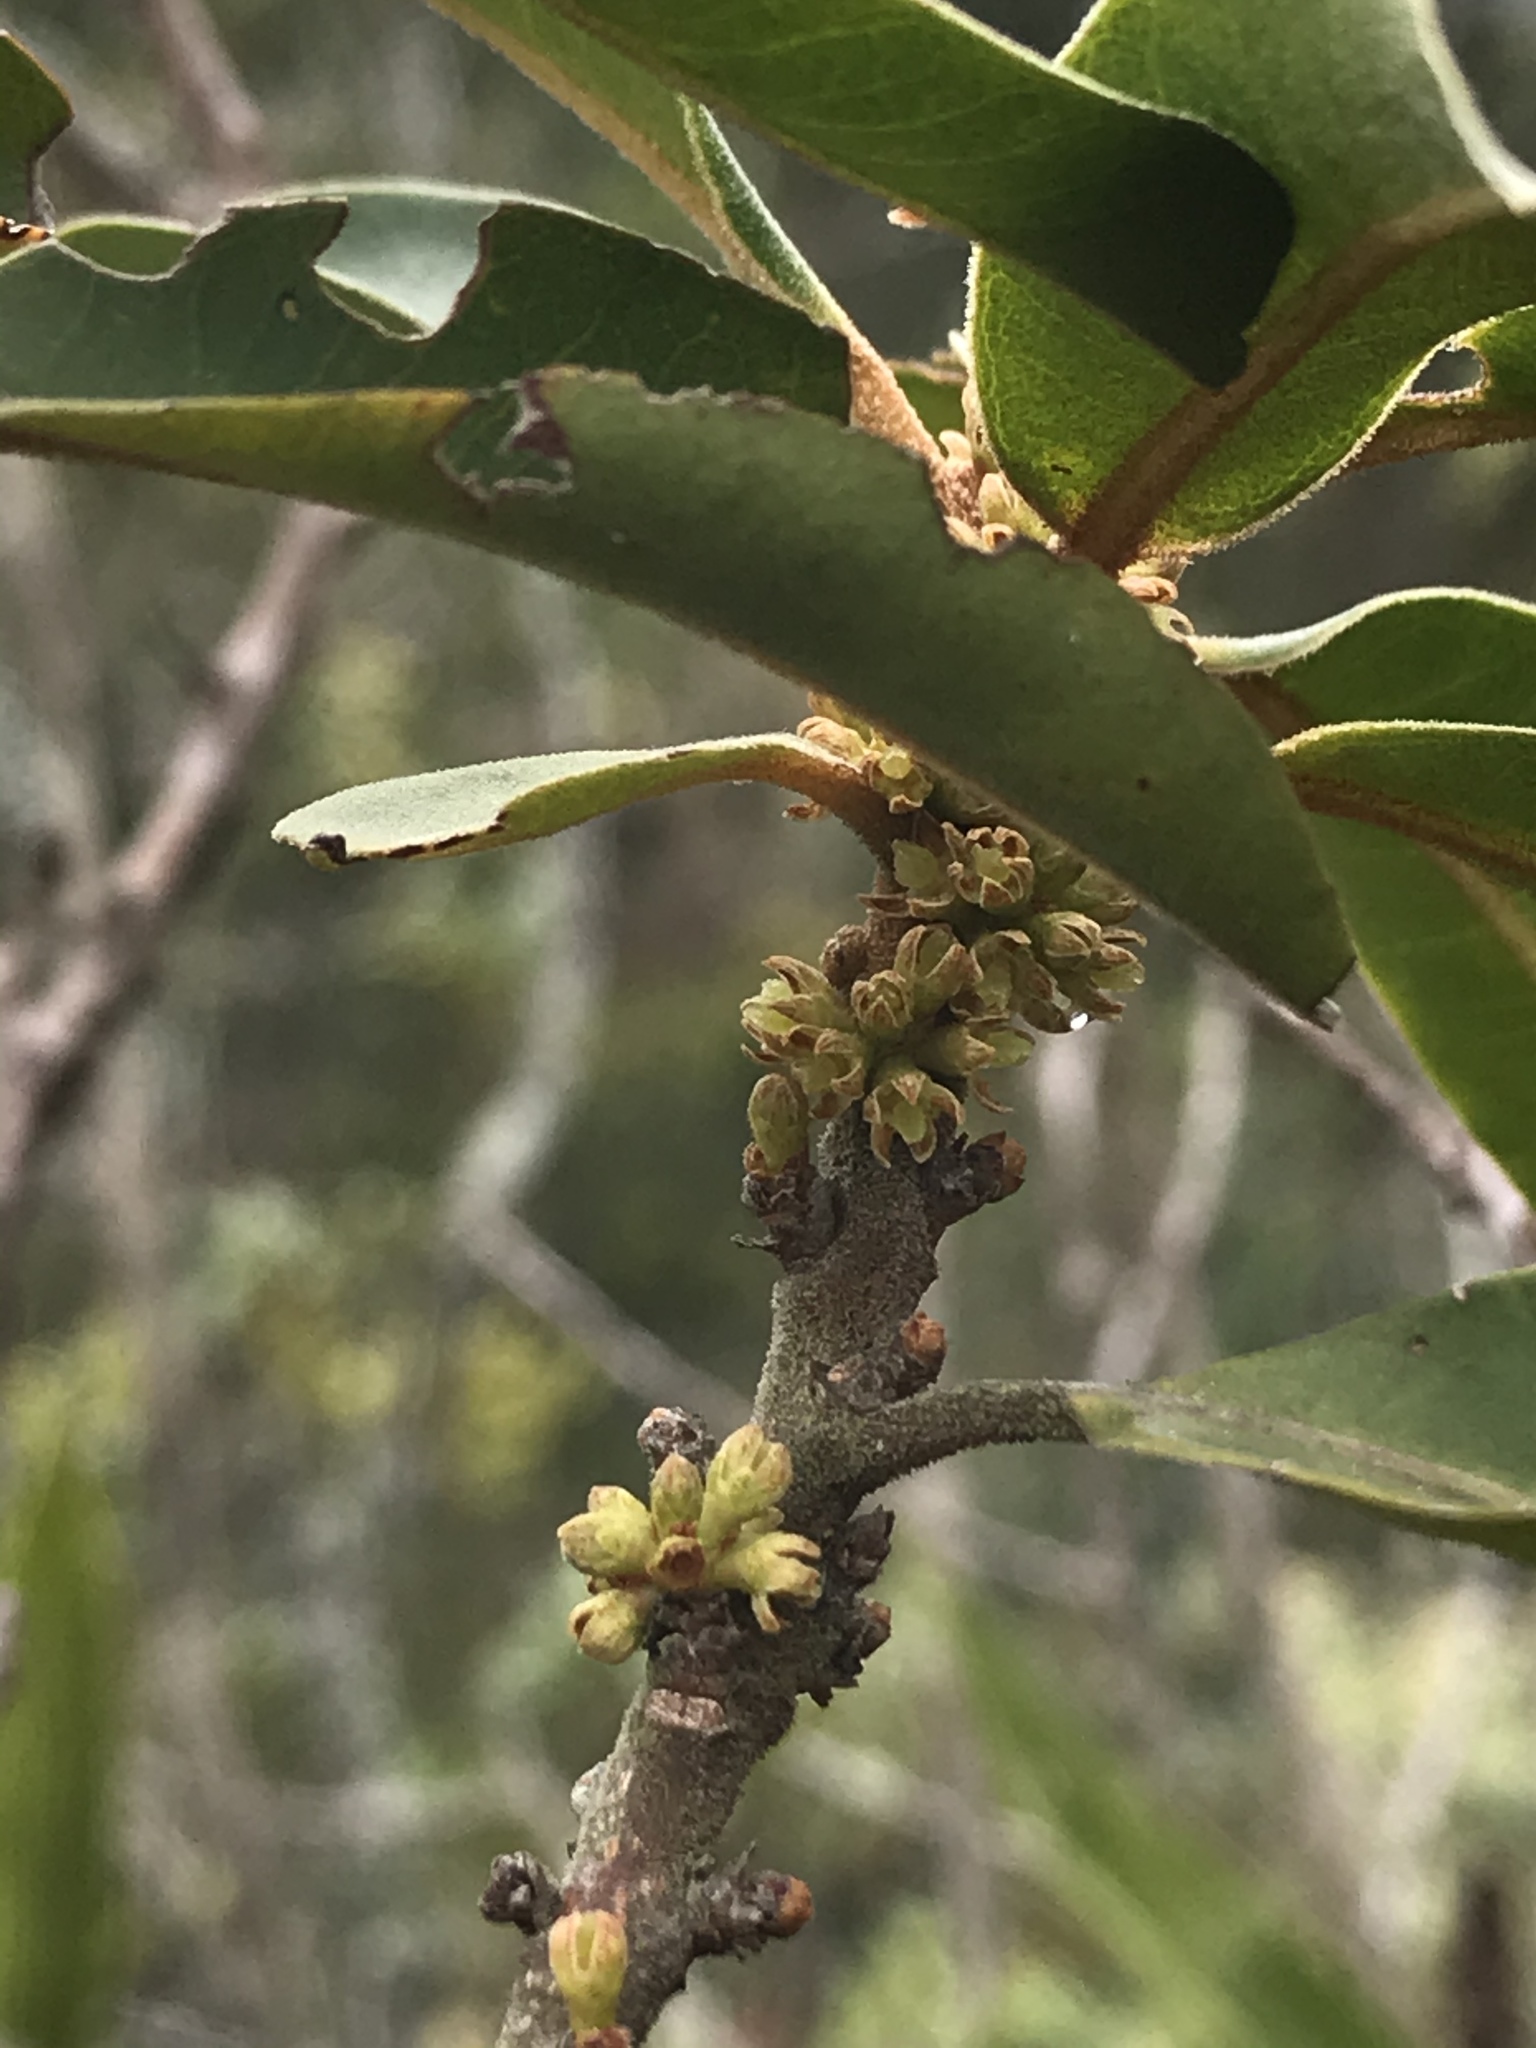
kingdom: Plantae
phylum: Tracheophyta
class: Magnoliopsida
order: Ericales
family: Primulaceae
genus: Myrsine
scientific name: Myrsine coriacea
